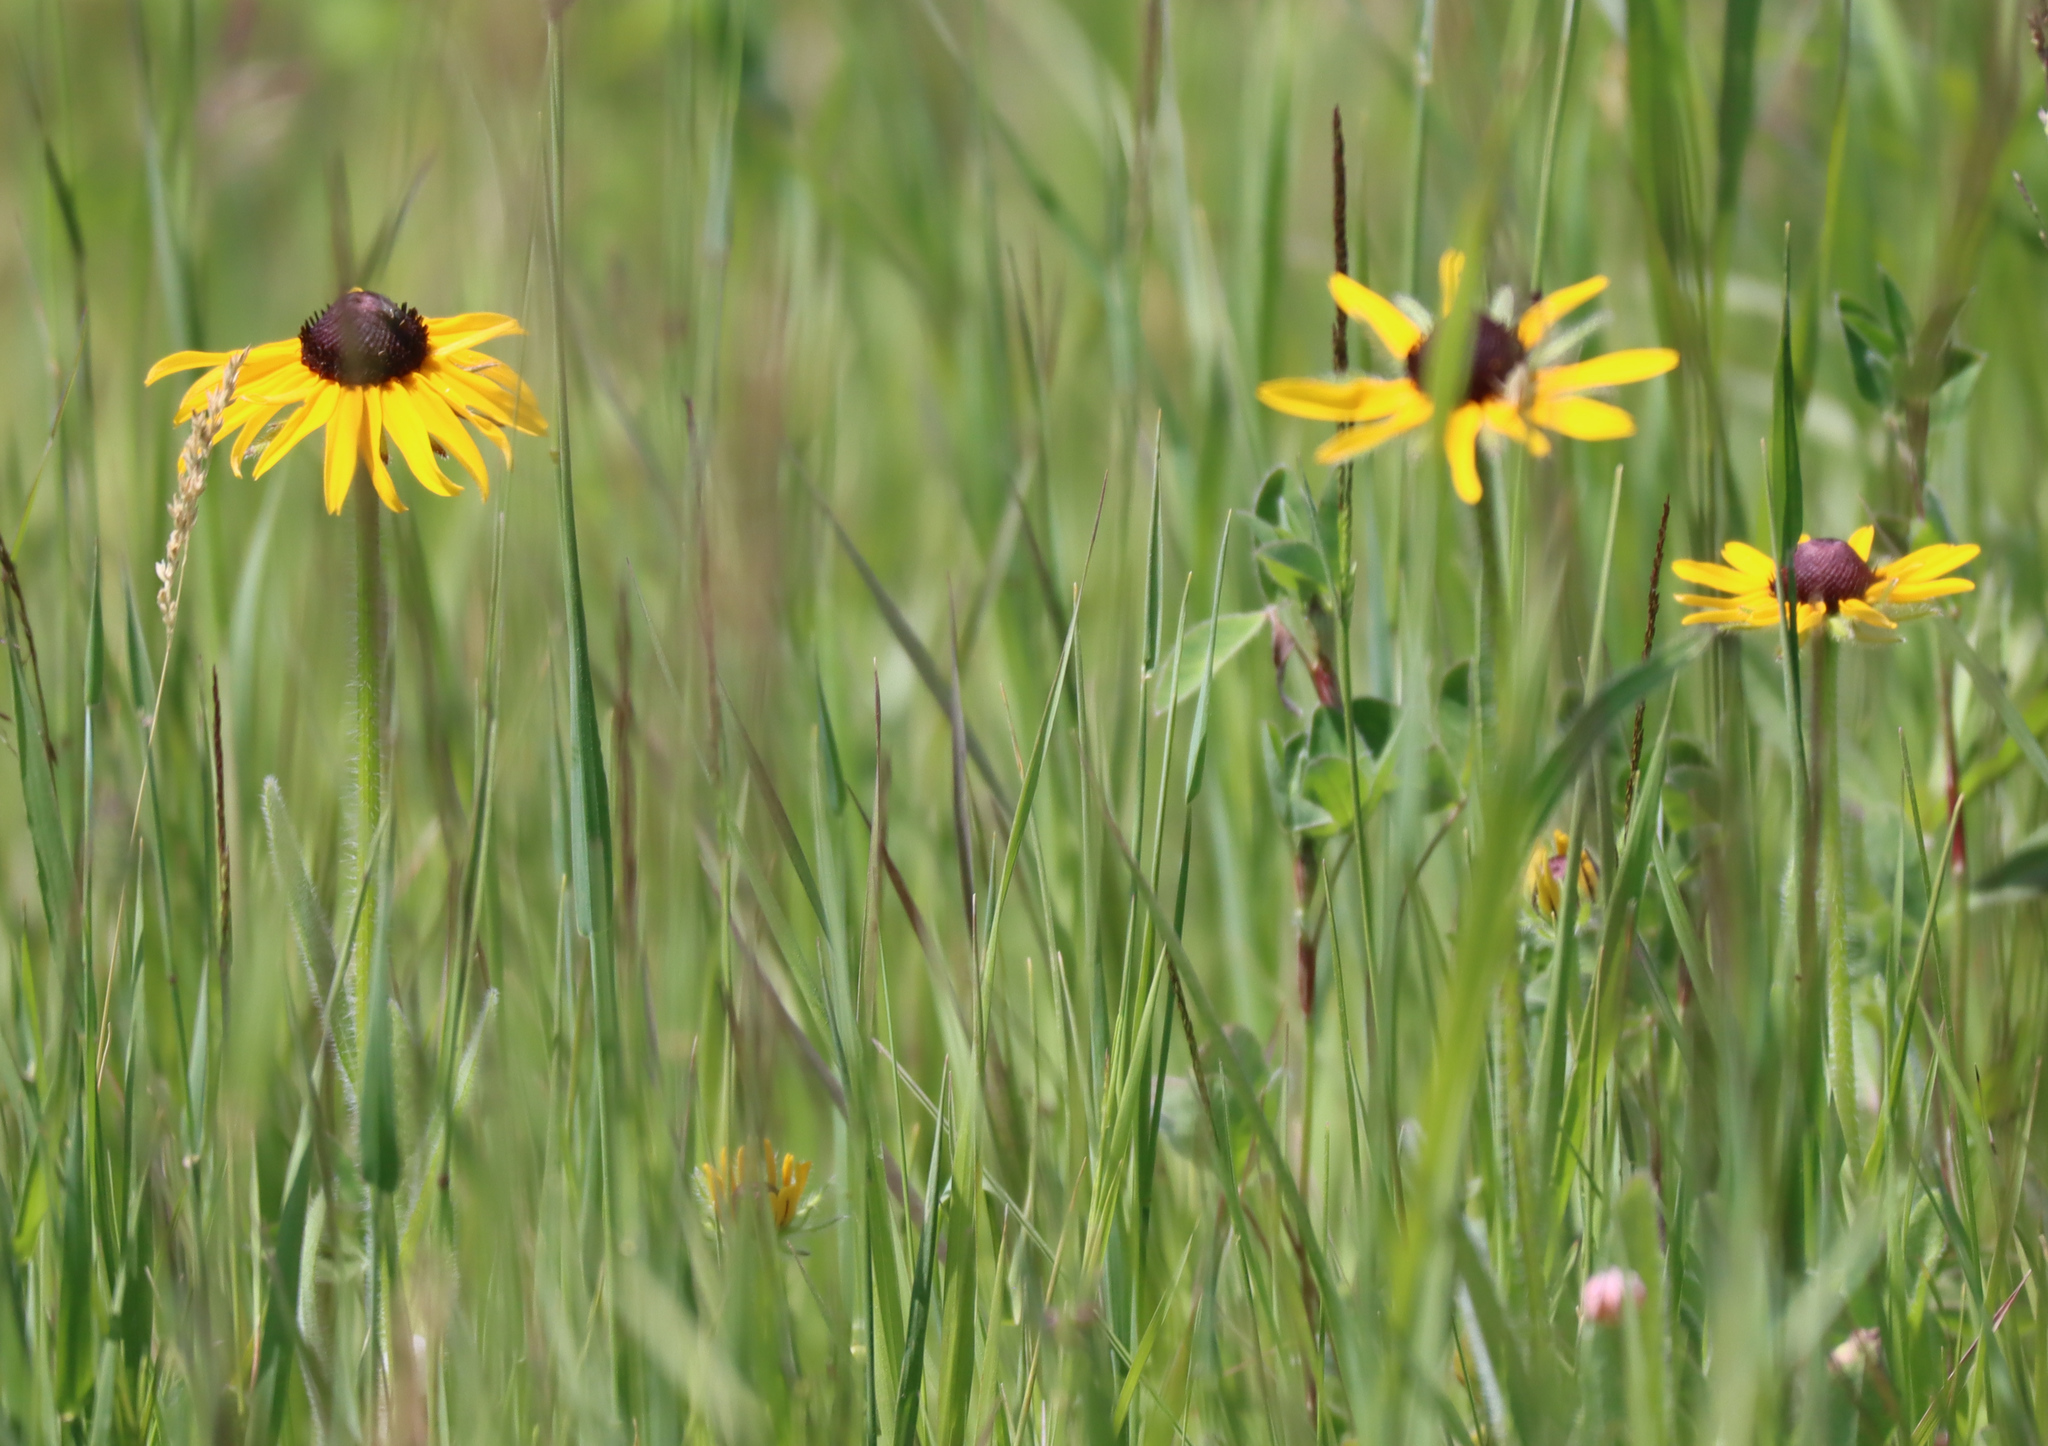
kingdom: Plantae
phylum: Tracheophyta
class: Magnoliopsida
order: Asterales
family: Asteraceae
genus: Rudbeckia
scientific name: Rudbeckia hirta
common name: Black-eyed-susan
